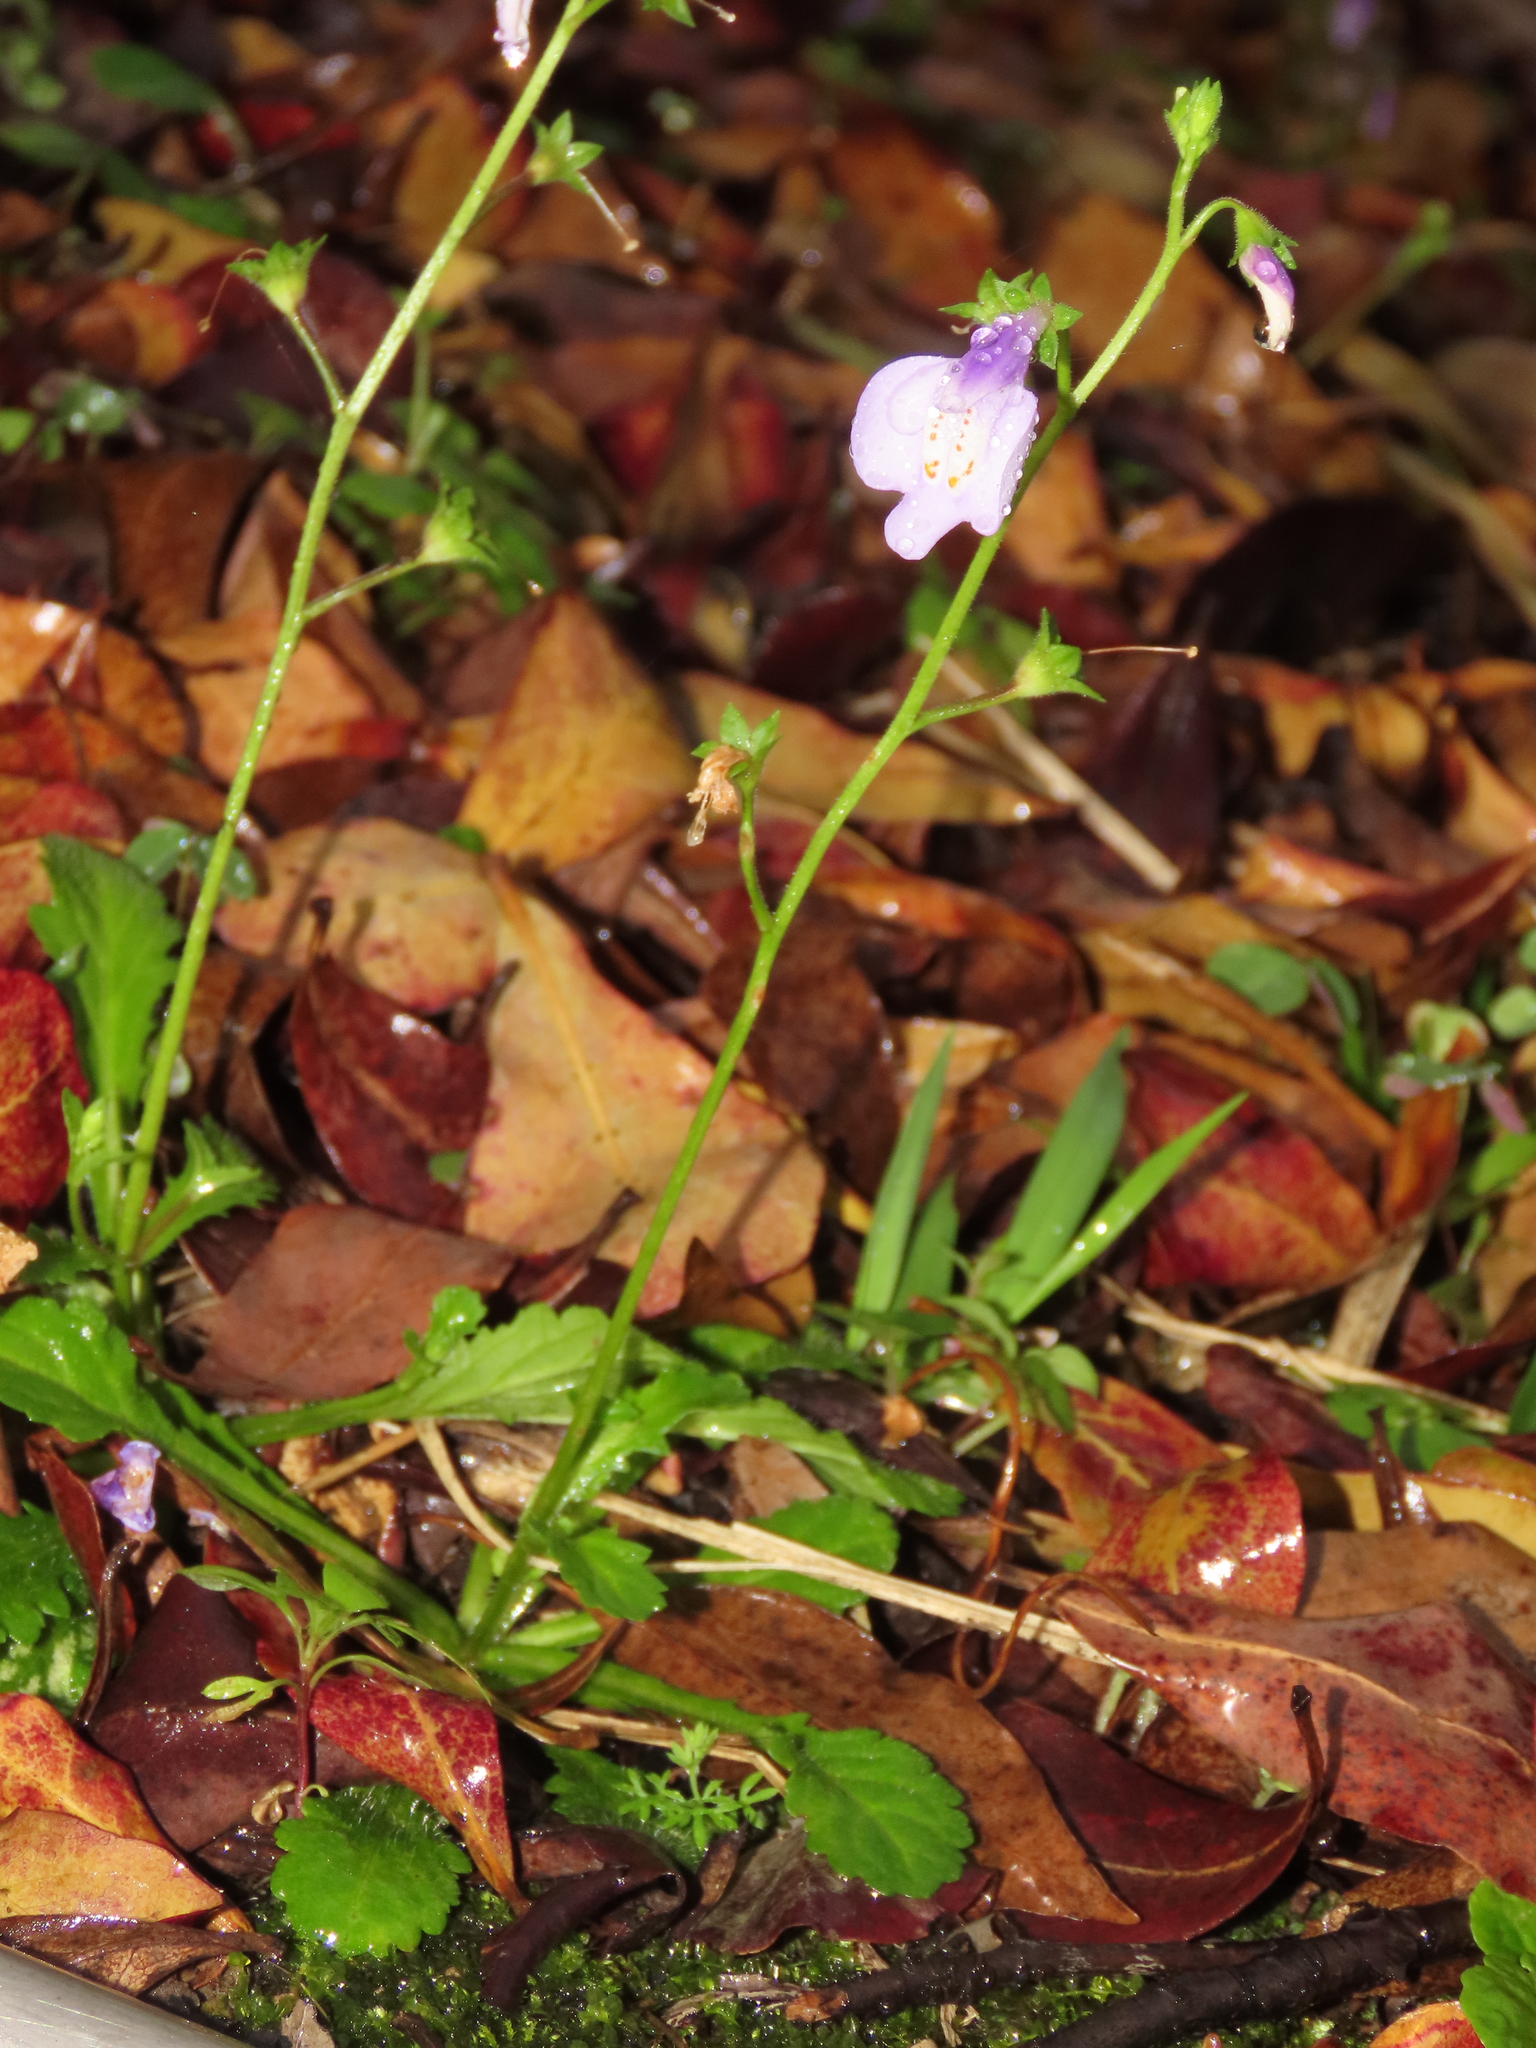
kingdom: Plantae
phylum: Tracheophyta
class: Magnoliopsida
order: Lamiales
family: Mazaceae
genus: Mazus
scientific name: Mazus fauriei
